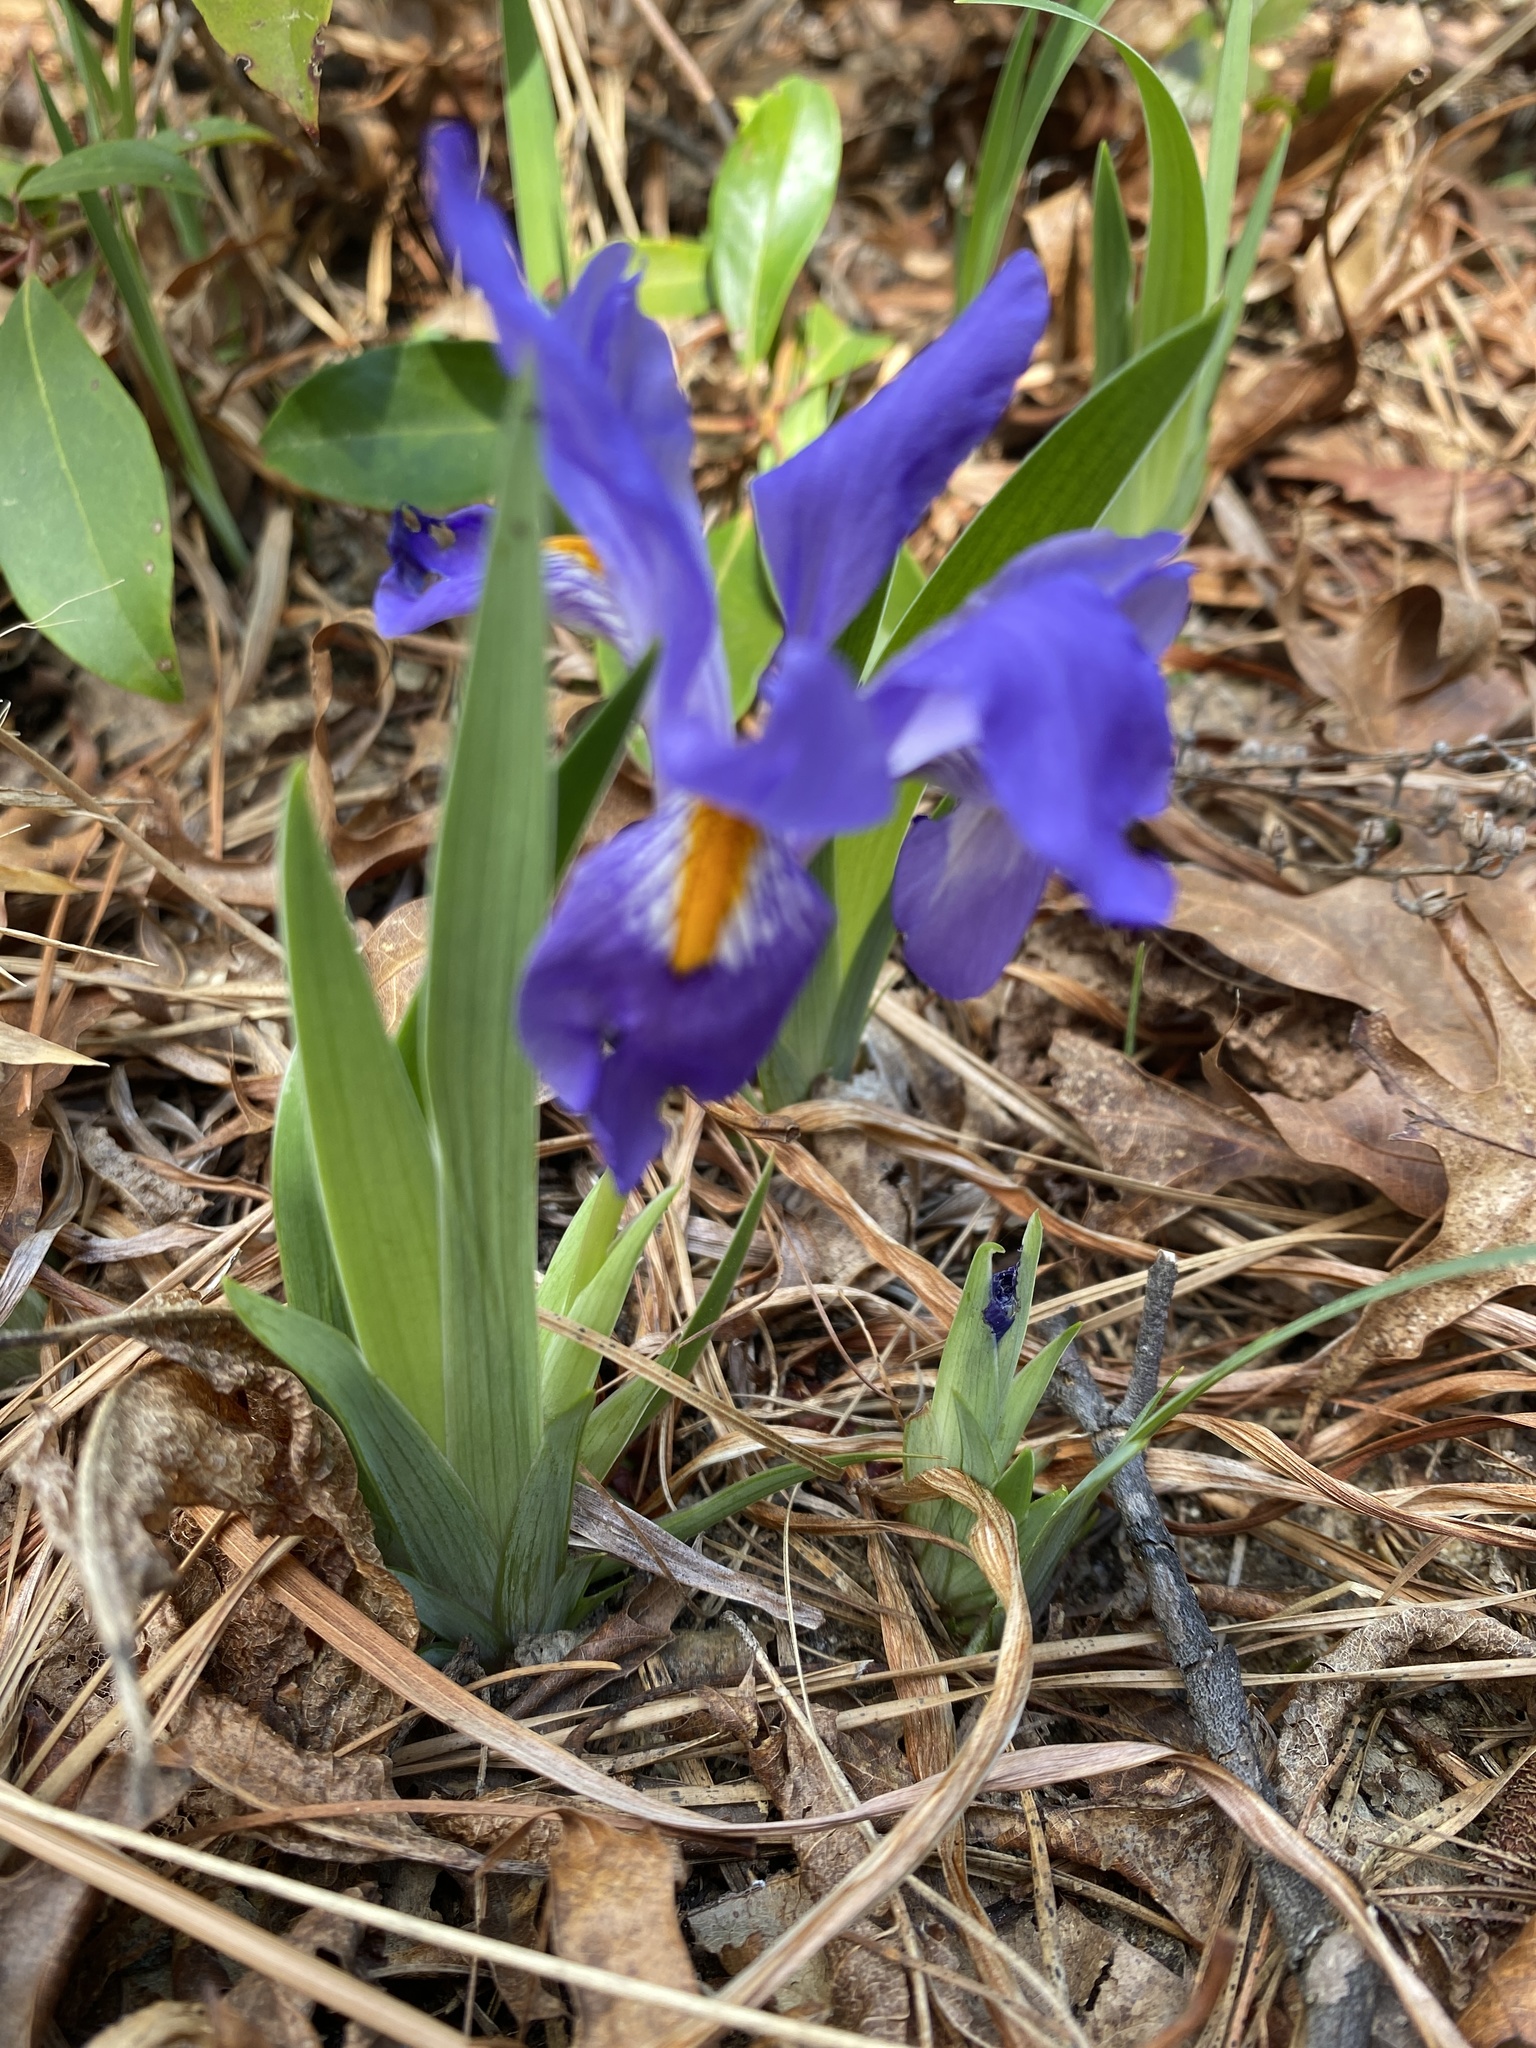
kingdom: Plantae
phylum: Tracheophyta
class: Liliopsida
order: Asparagales
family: Iridaceae
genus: Iris
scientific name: Iris verna
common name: Dwarf iris
